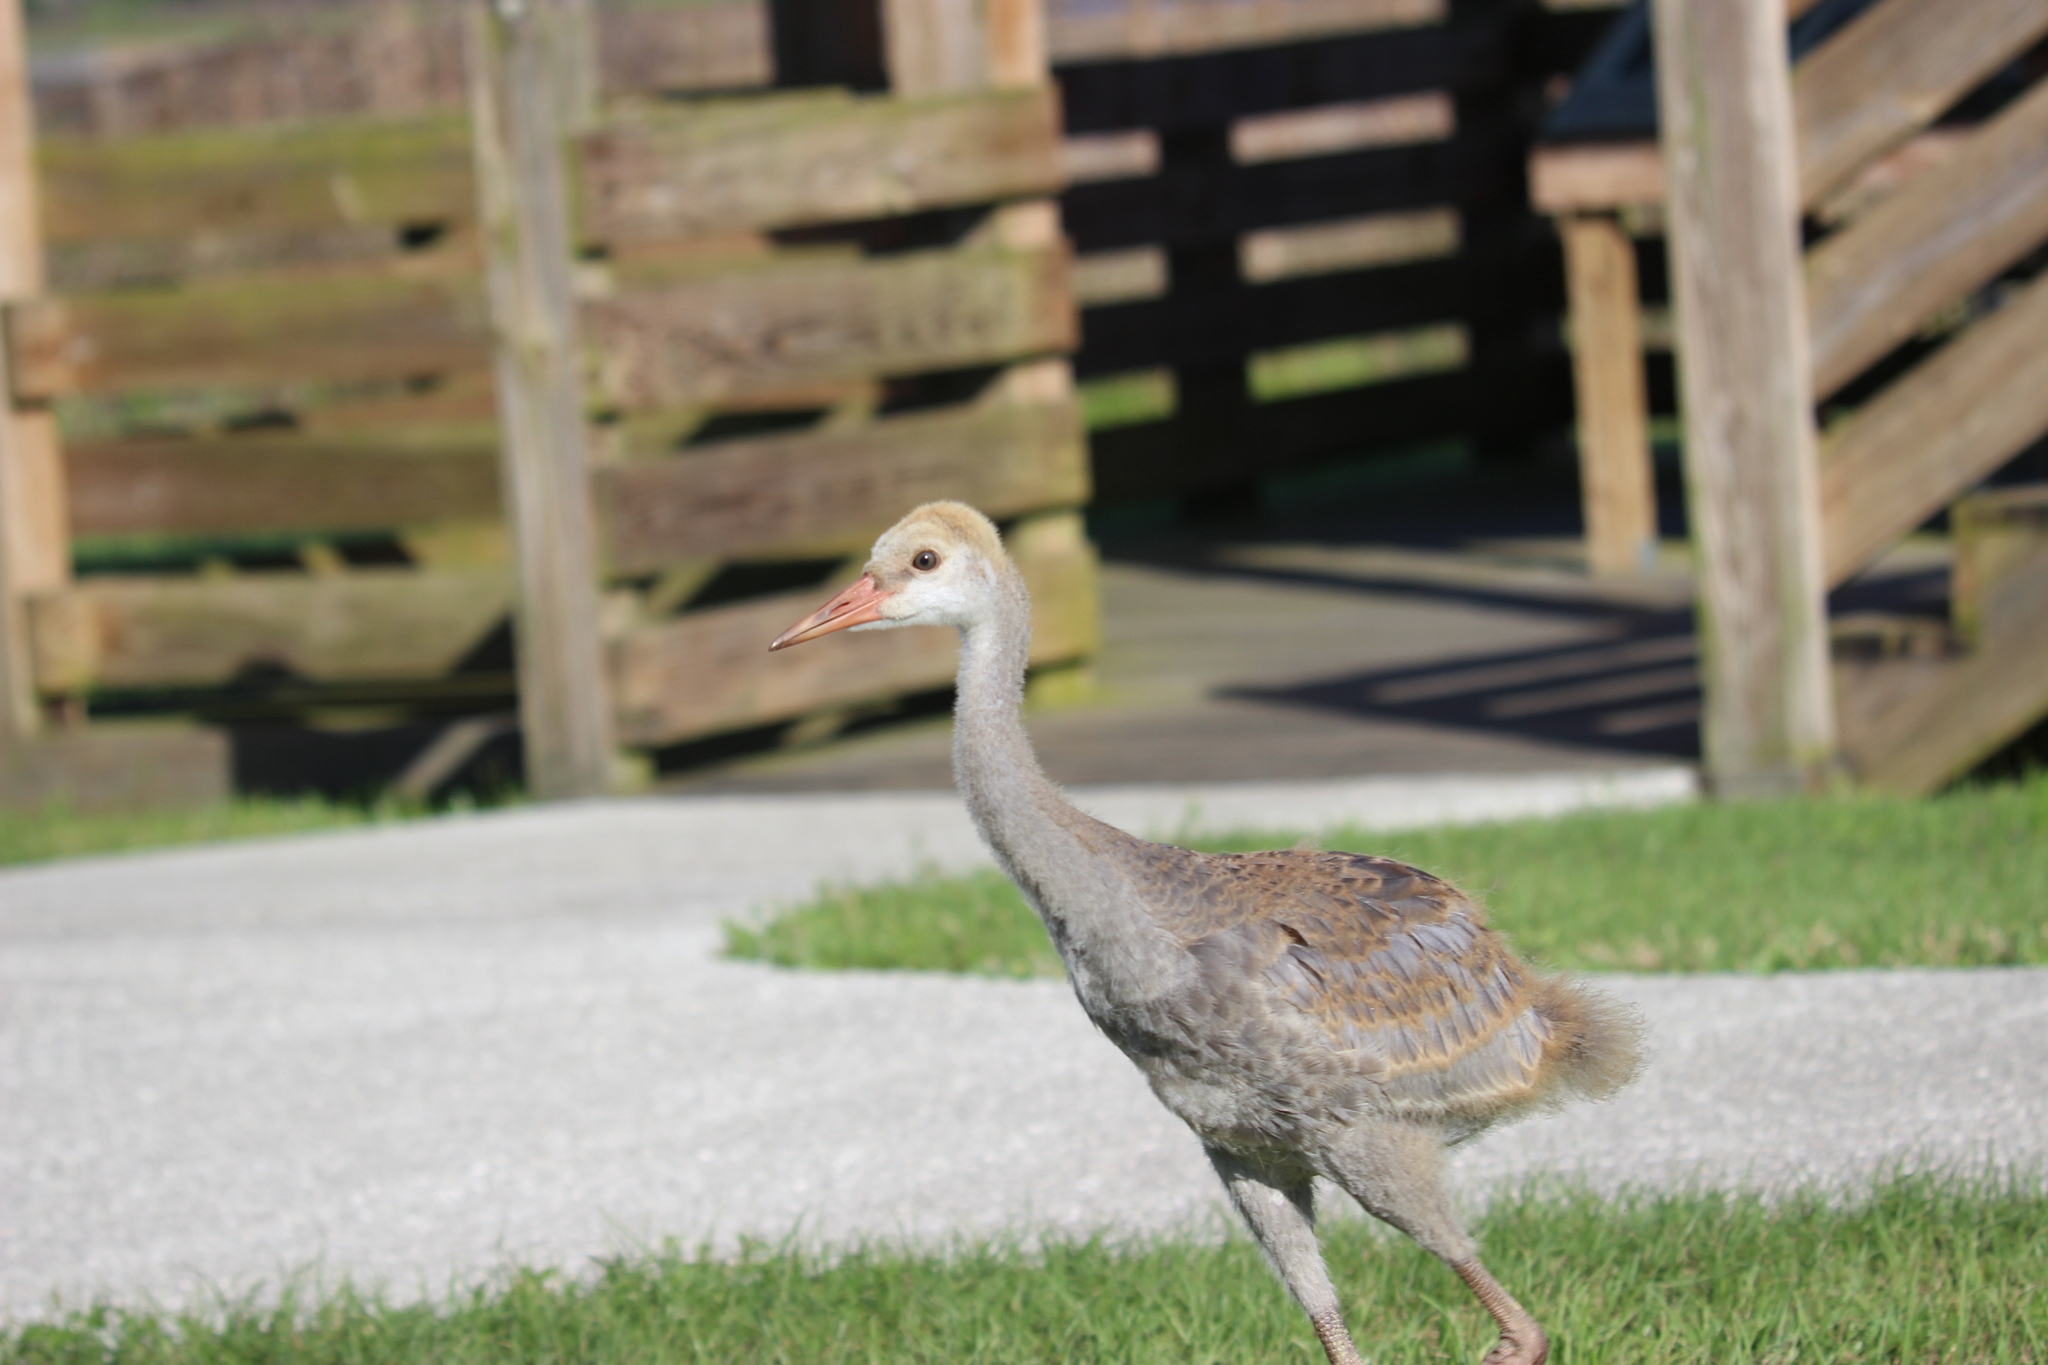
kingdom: Animalia
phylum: Chordata
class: Aves
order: Gruiformes
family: Gruidae
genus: Grus
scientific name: Grus canadensis
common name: Sandhill crane
